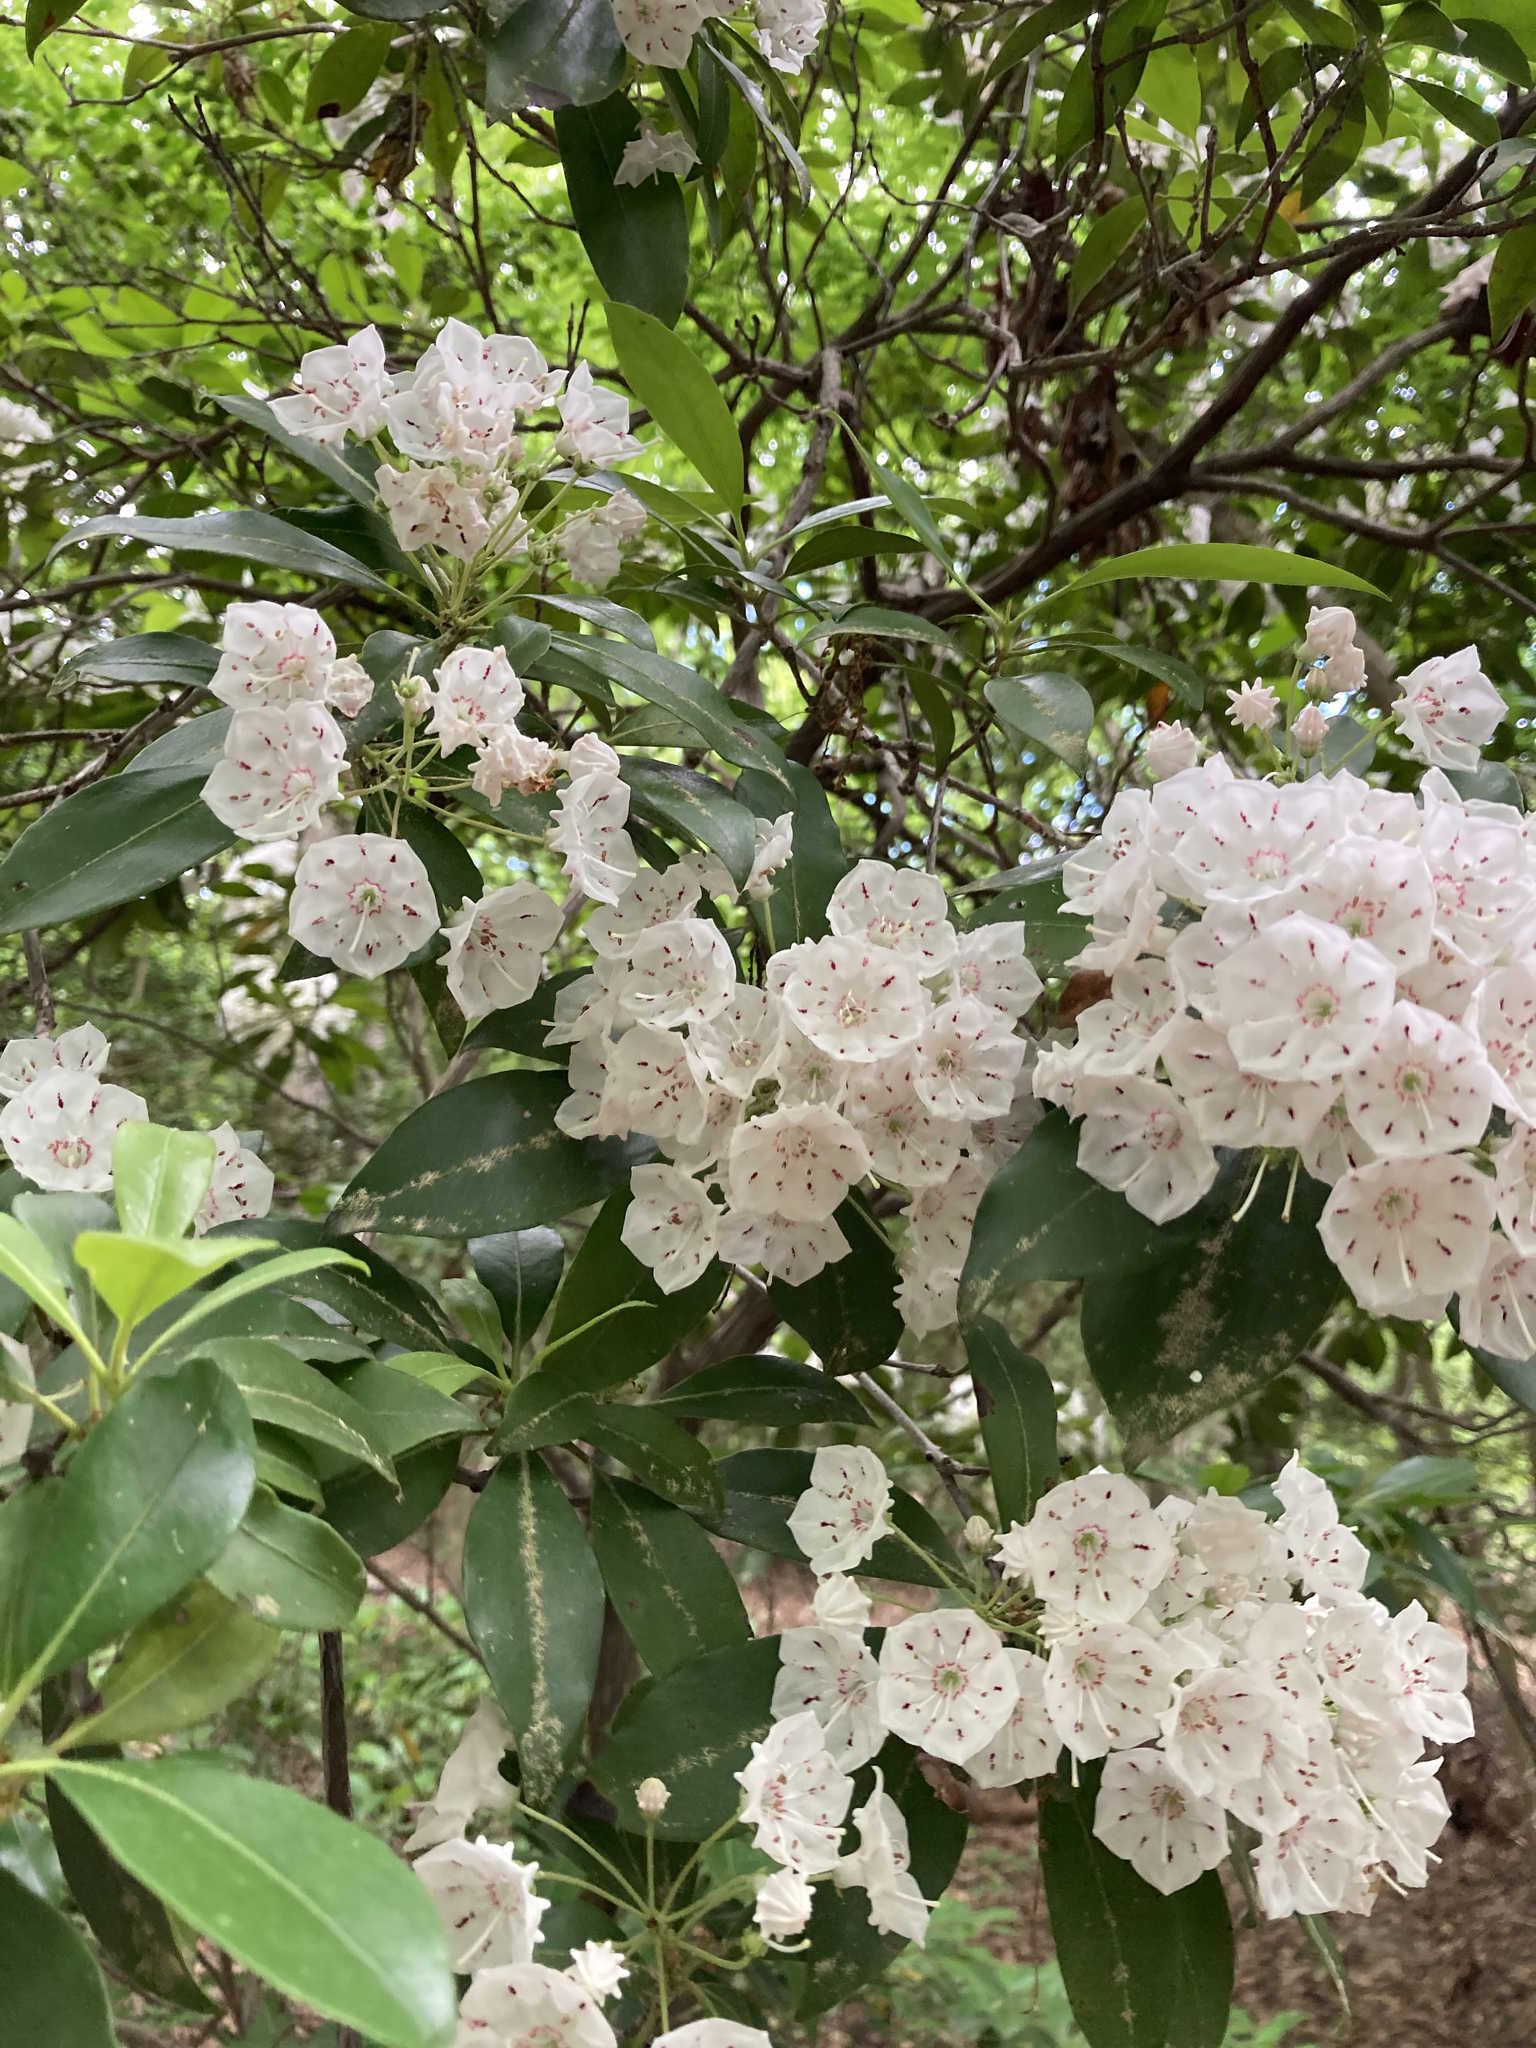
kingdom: Plantae
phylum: Tracheophyta
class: Magnoliopsida
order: Ericales
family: Ericaceae
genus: Kalmia
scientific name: Kalmia latifolia
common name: Mountain-laurel
